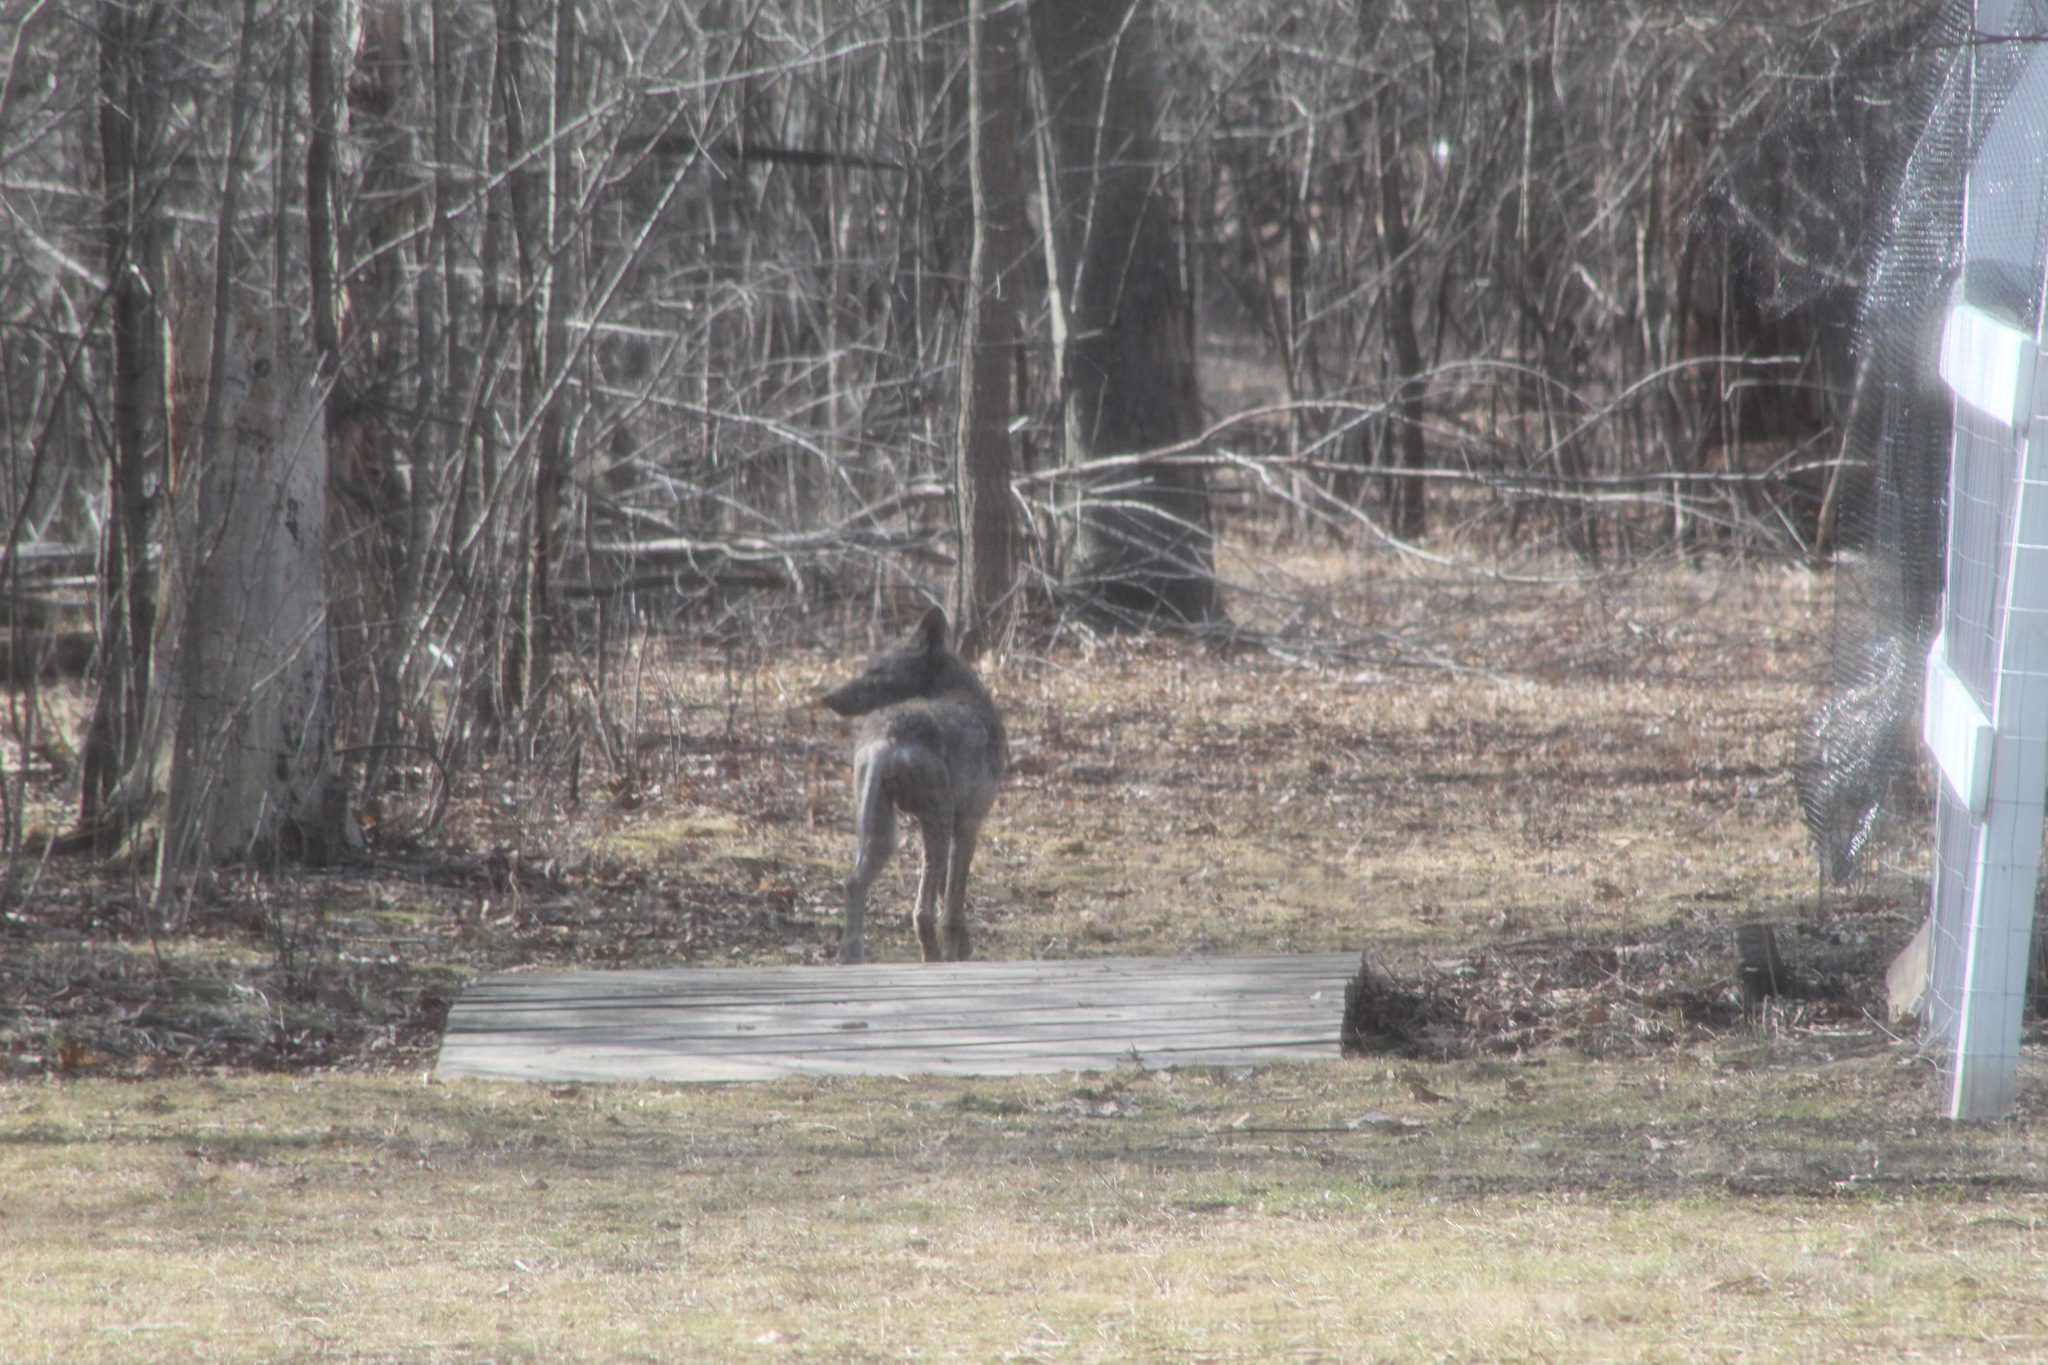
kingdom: Animalia
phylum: Chordata
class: Mammalia
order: Carnivora
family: Canidae
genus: Canis
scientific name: Canis latrans
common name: Coyote
